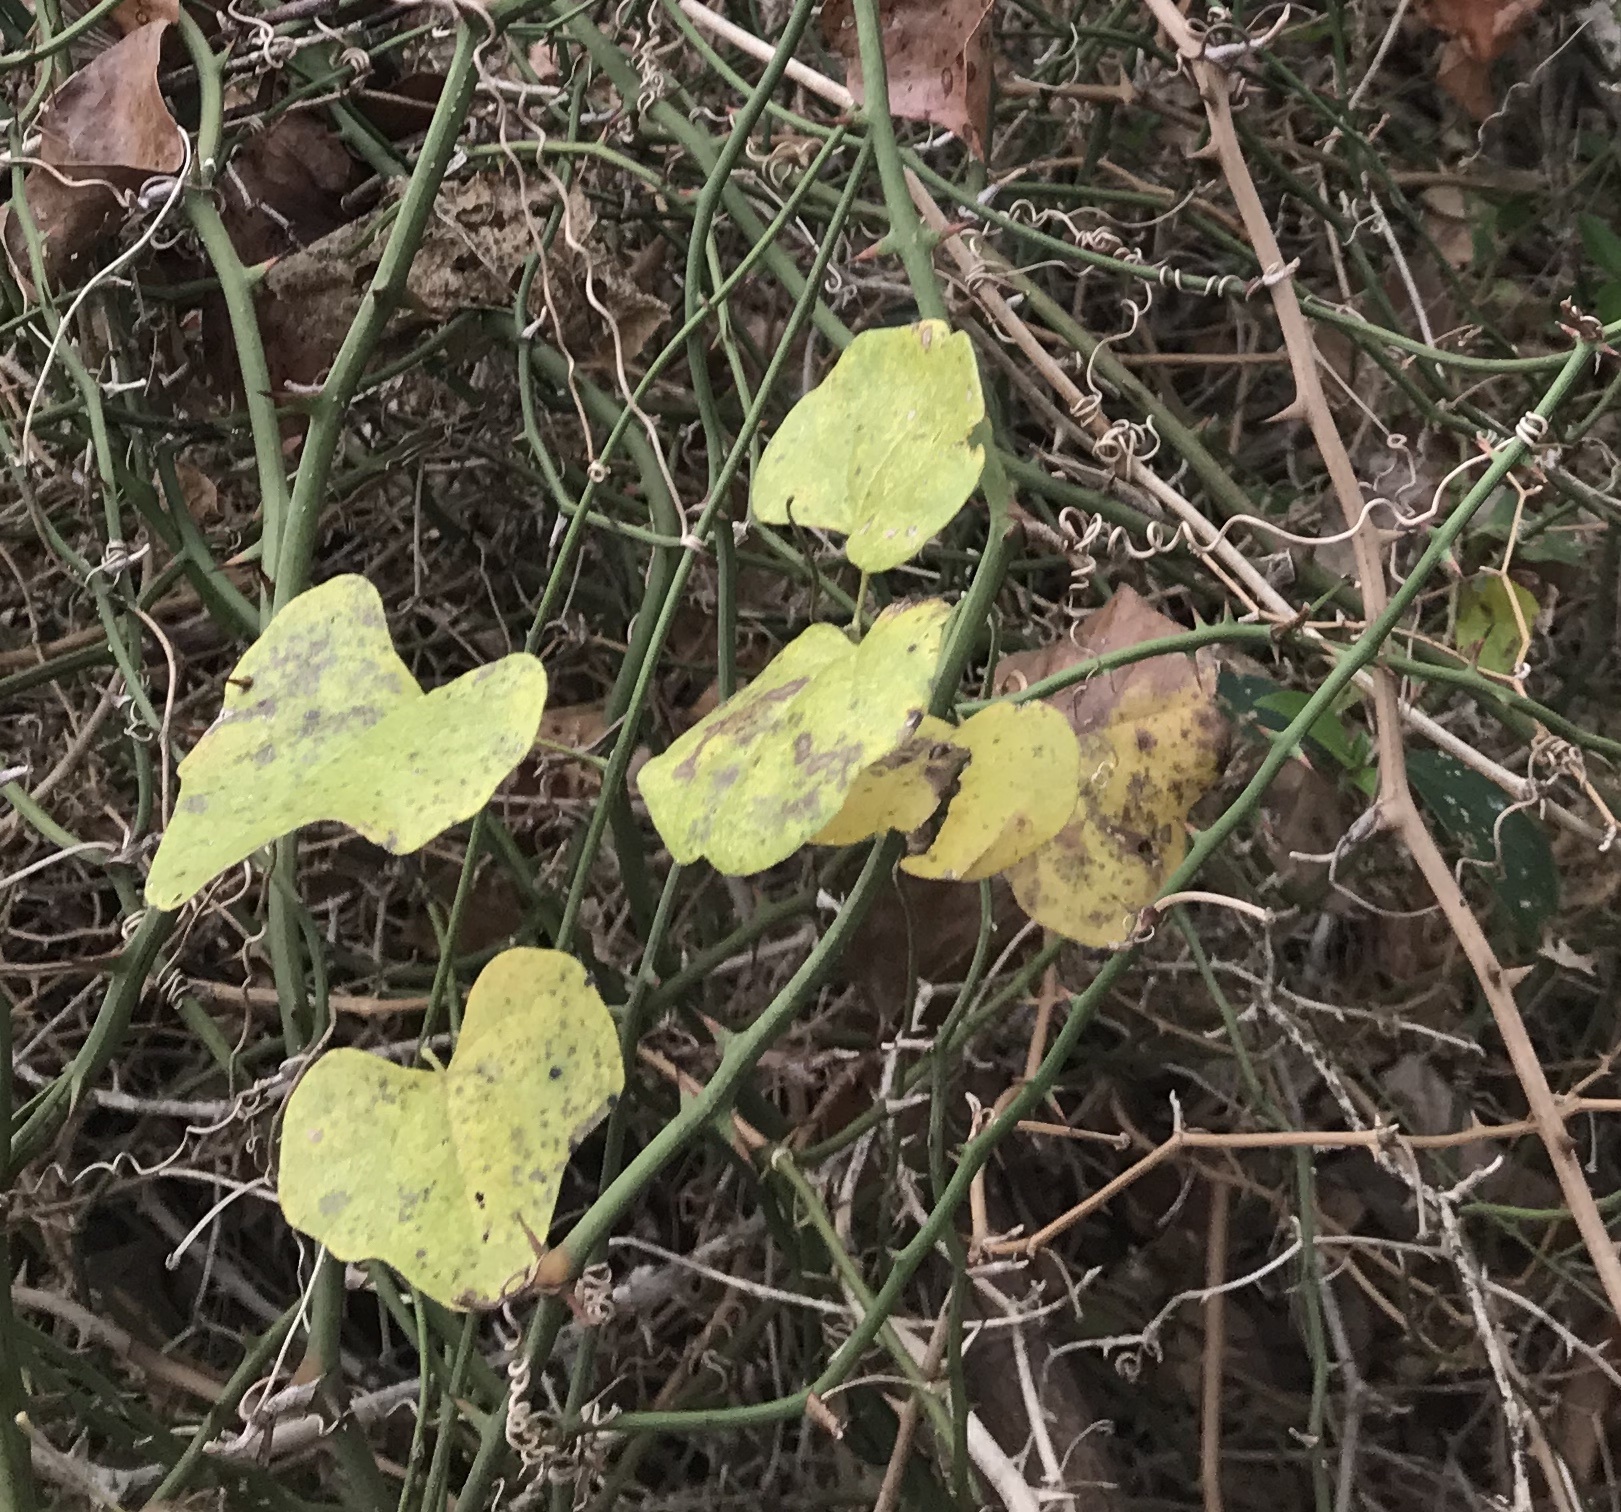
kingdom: Plantae
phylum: Tracheophyta
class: Liliopsida
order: Liliales
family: Smilacaceae
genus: Smilax
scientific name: Smilax bona-nox
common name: Catbrier
